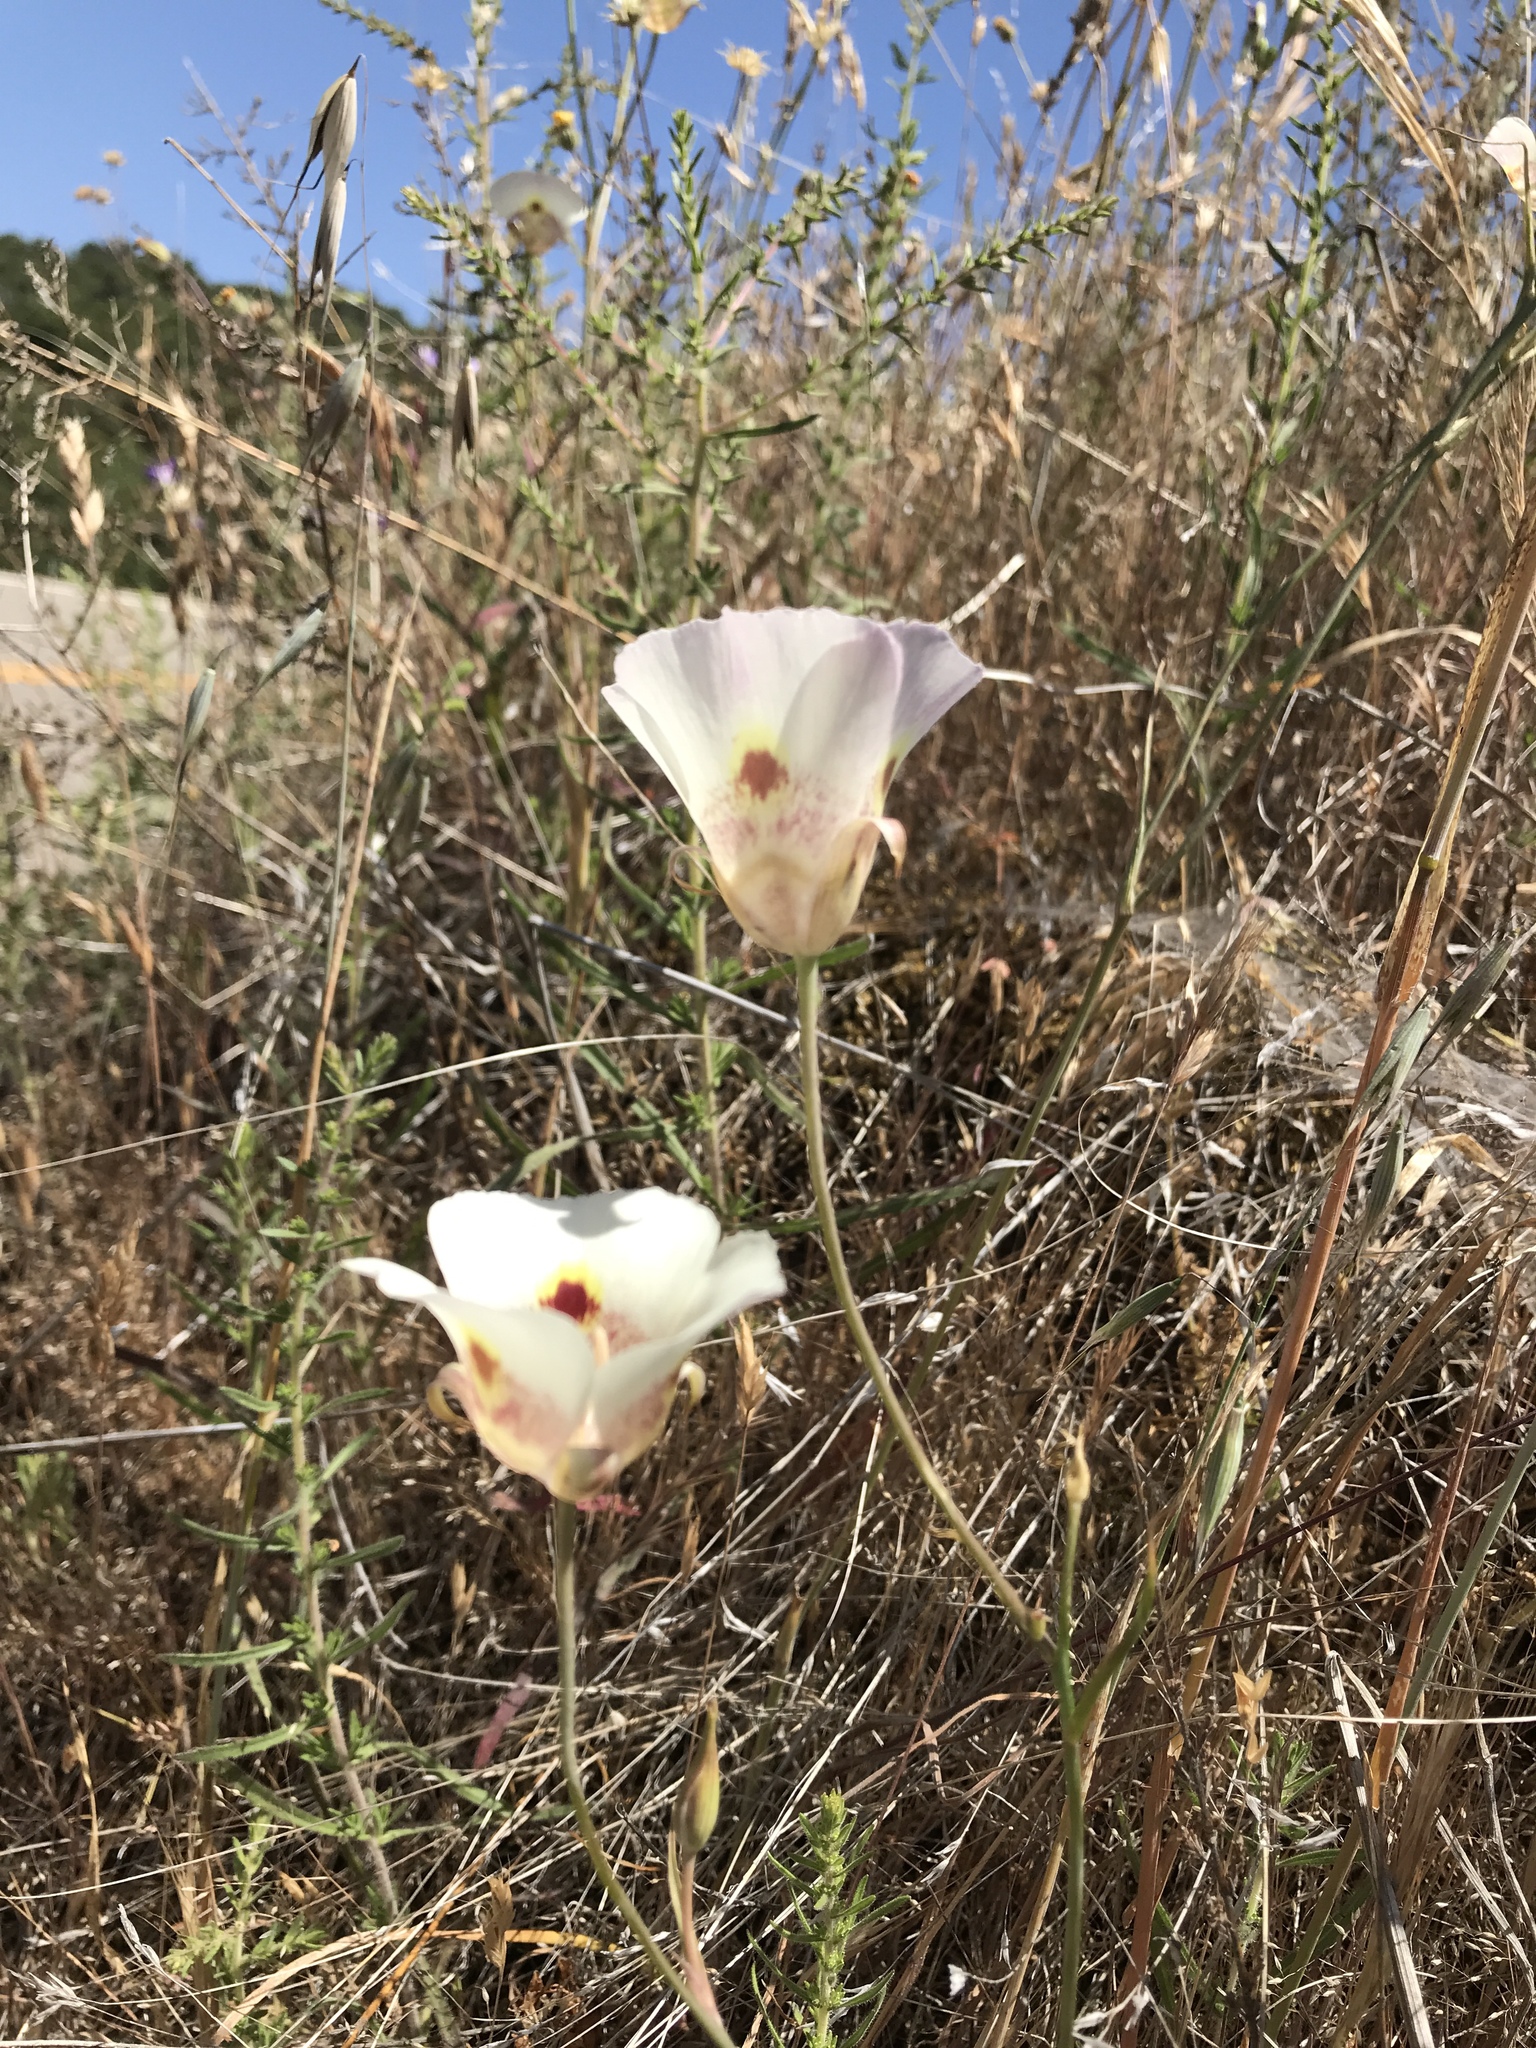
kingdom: Plantae
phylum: Tracheophyta
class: Liliopsida
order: Liliales
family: Liliaceae
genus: Calochortus
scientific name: Calochortus superbus
